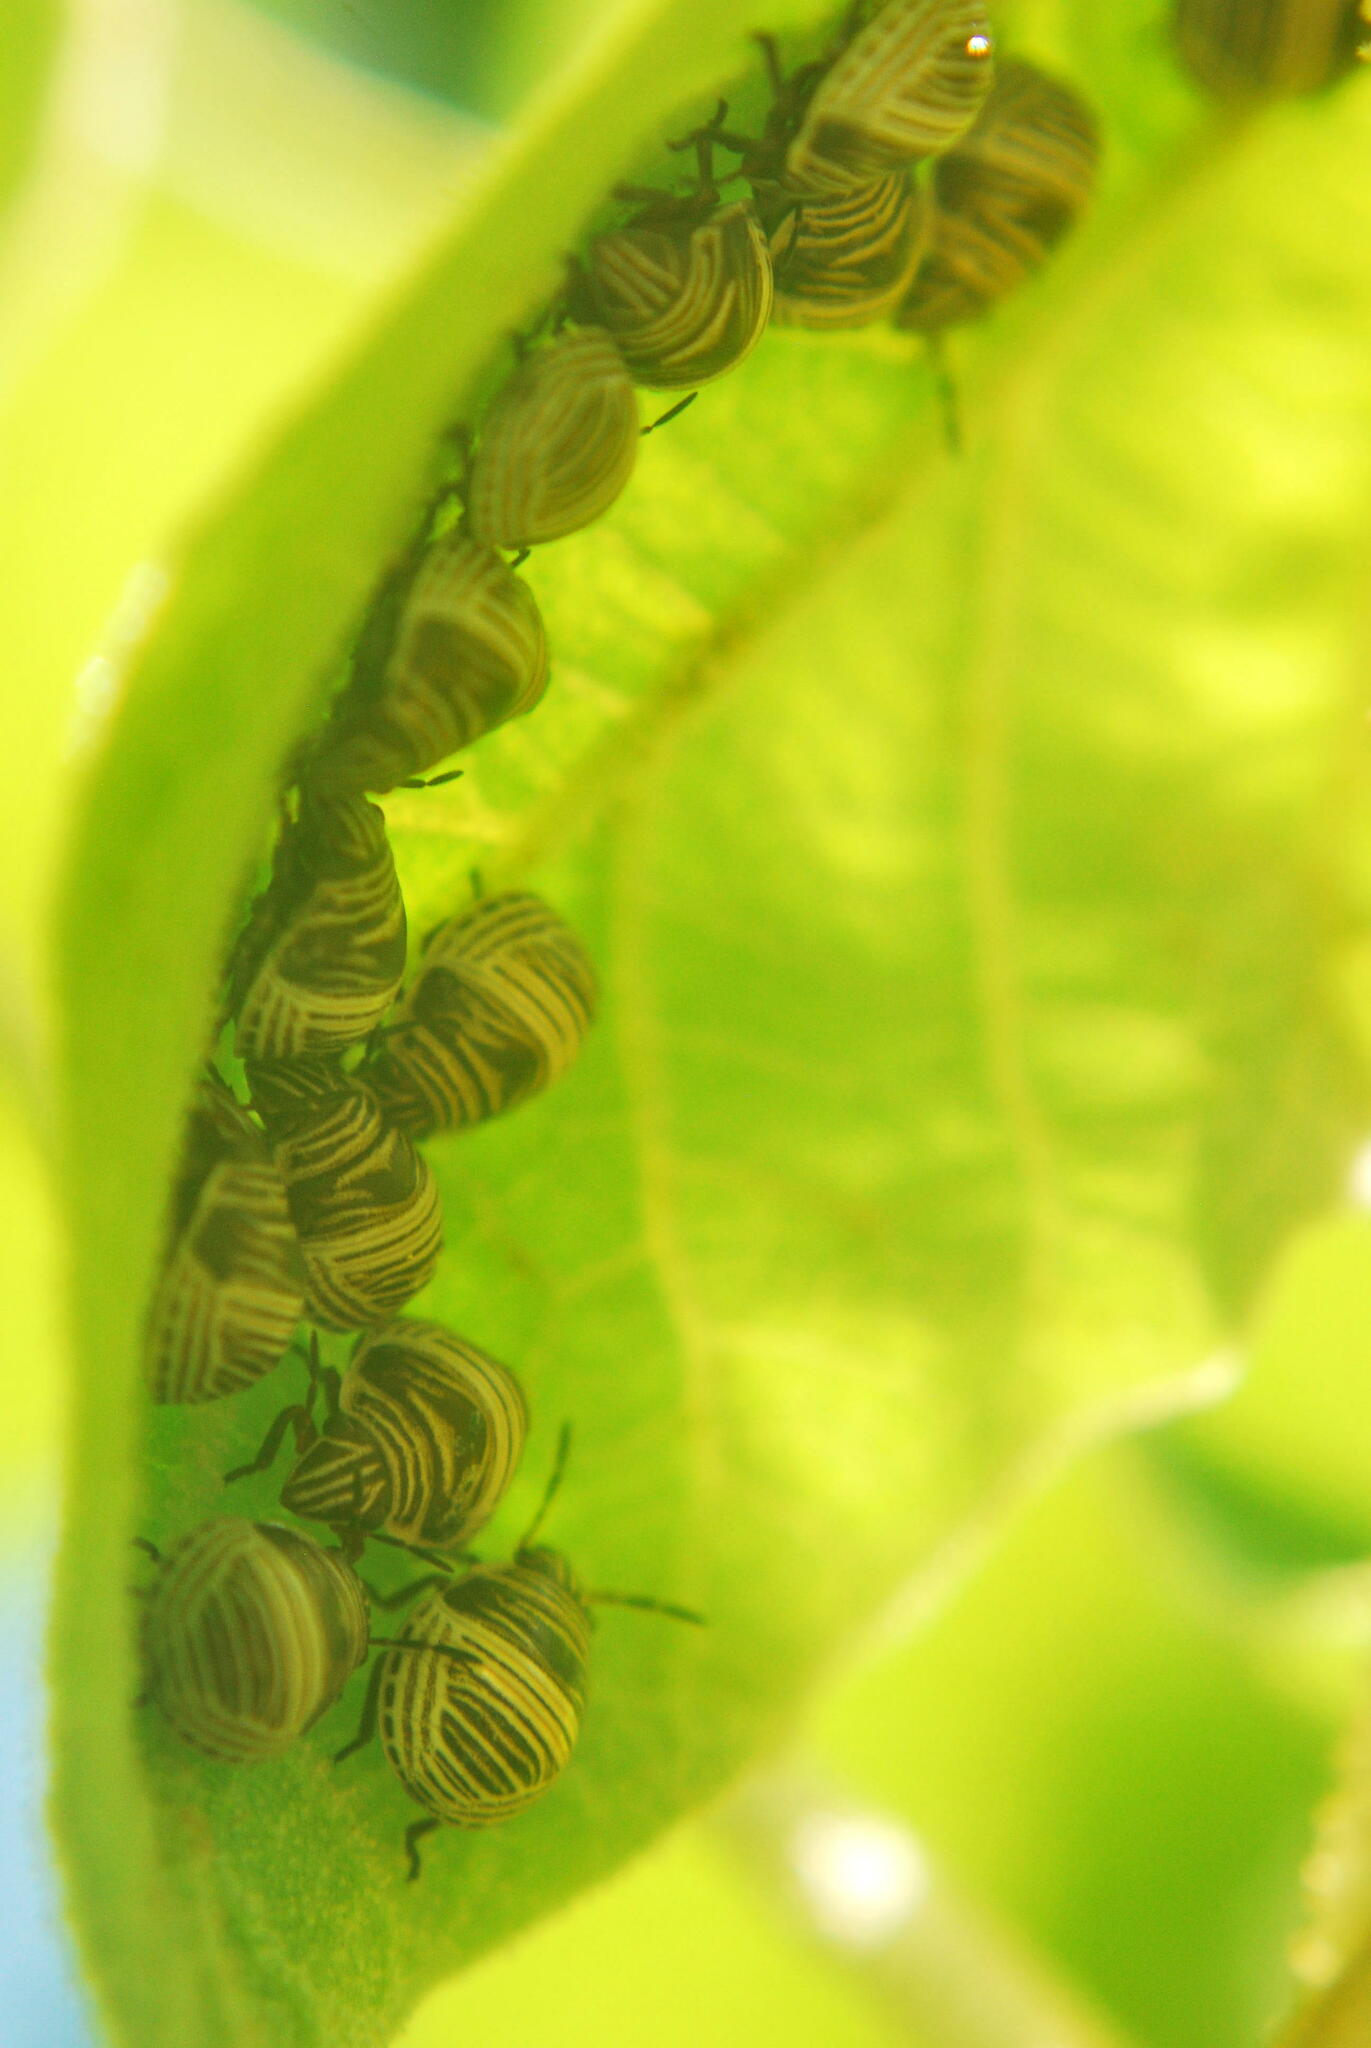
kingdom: Animalia
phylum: Arthropoda
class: Insecta
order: Hemiptera
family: Scutelleridae
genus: Orsilochides
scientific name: Orsilochides
